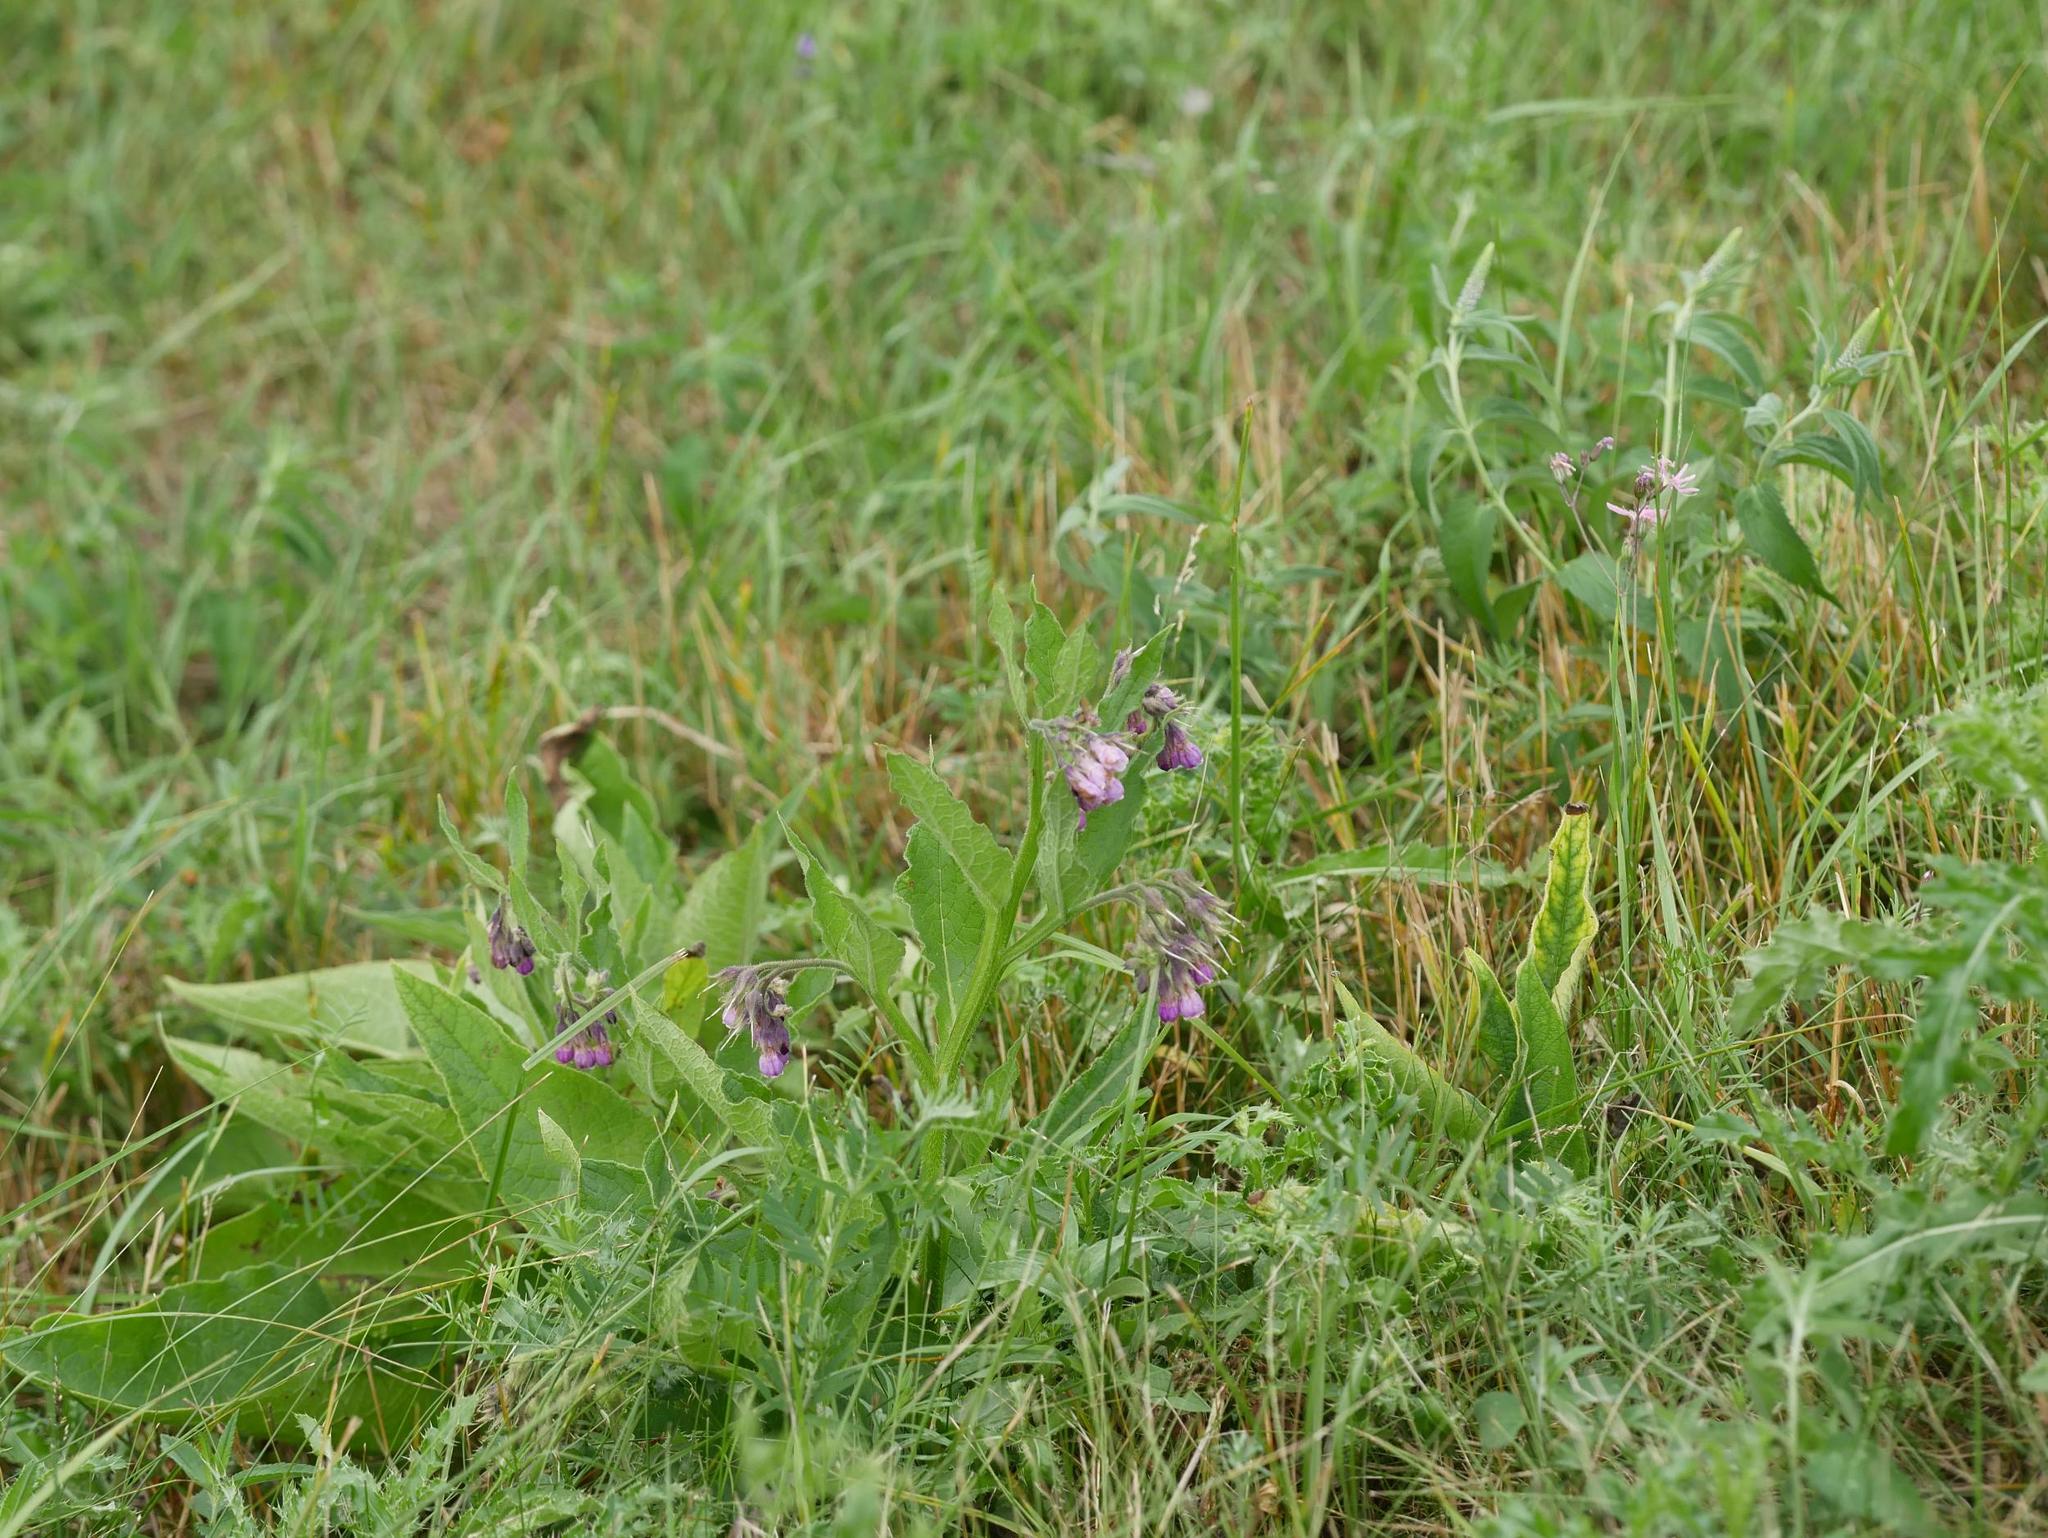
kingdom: Plantae
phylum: Tracheophyta
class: Magnoliopsida
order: Boraginales
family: Boraginaceae
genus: Symphytum
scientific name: Symphytum officinale
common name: Common comfrey
